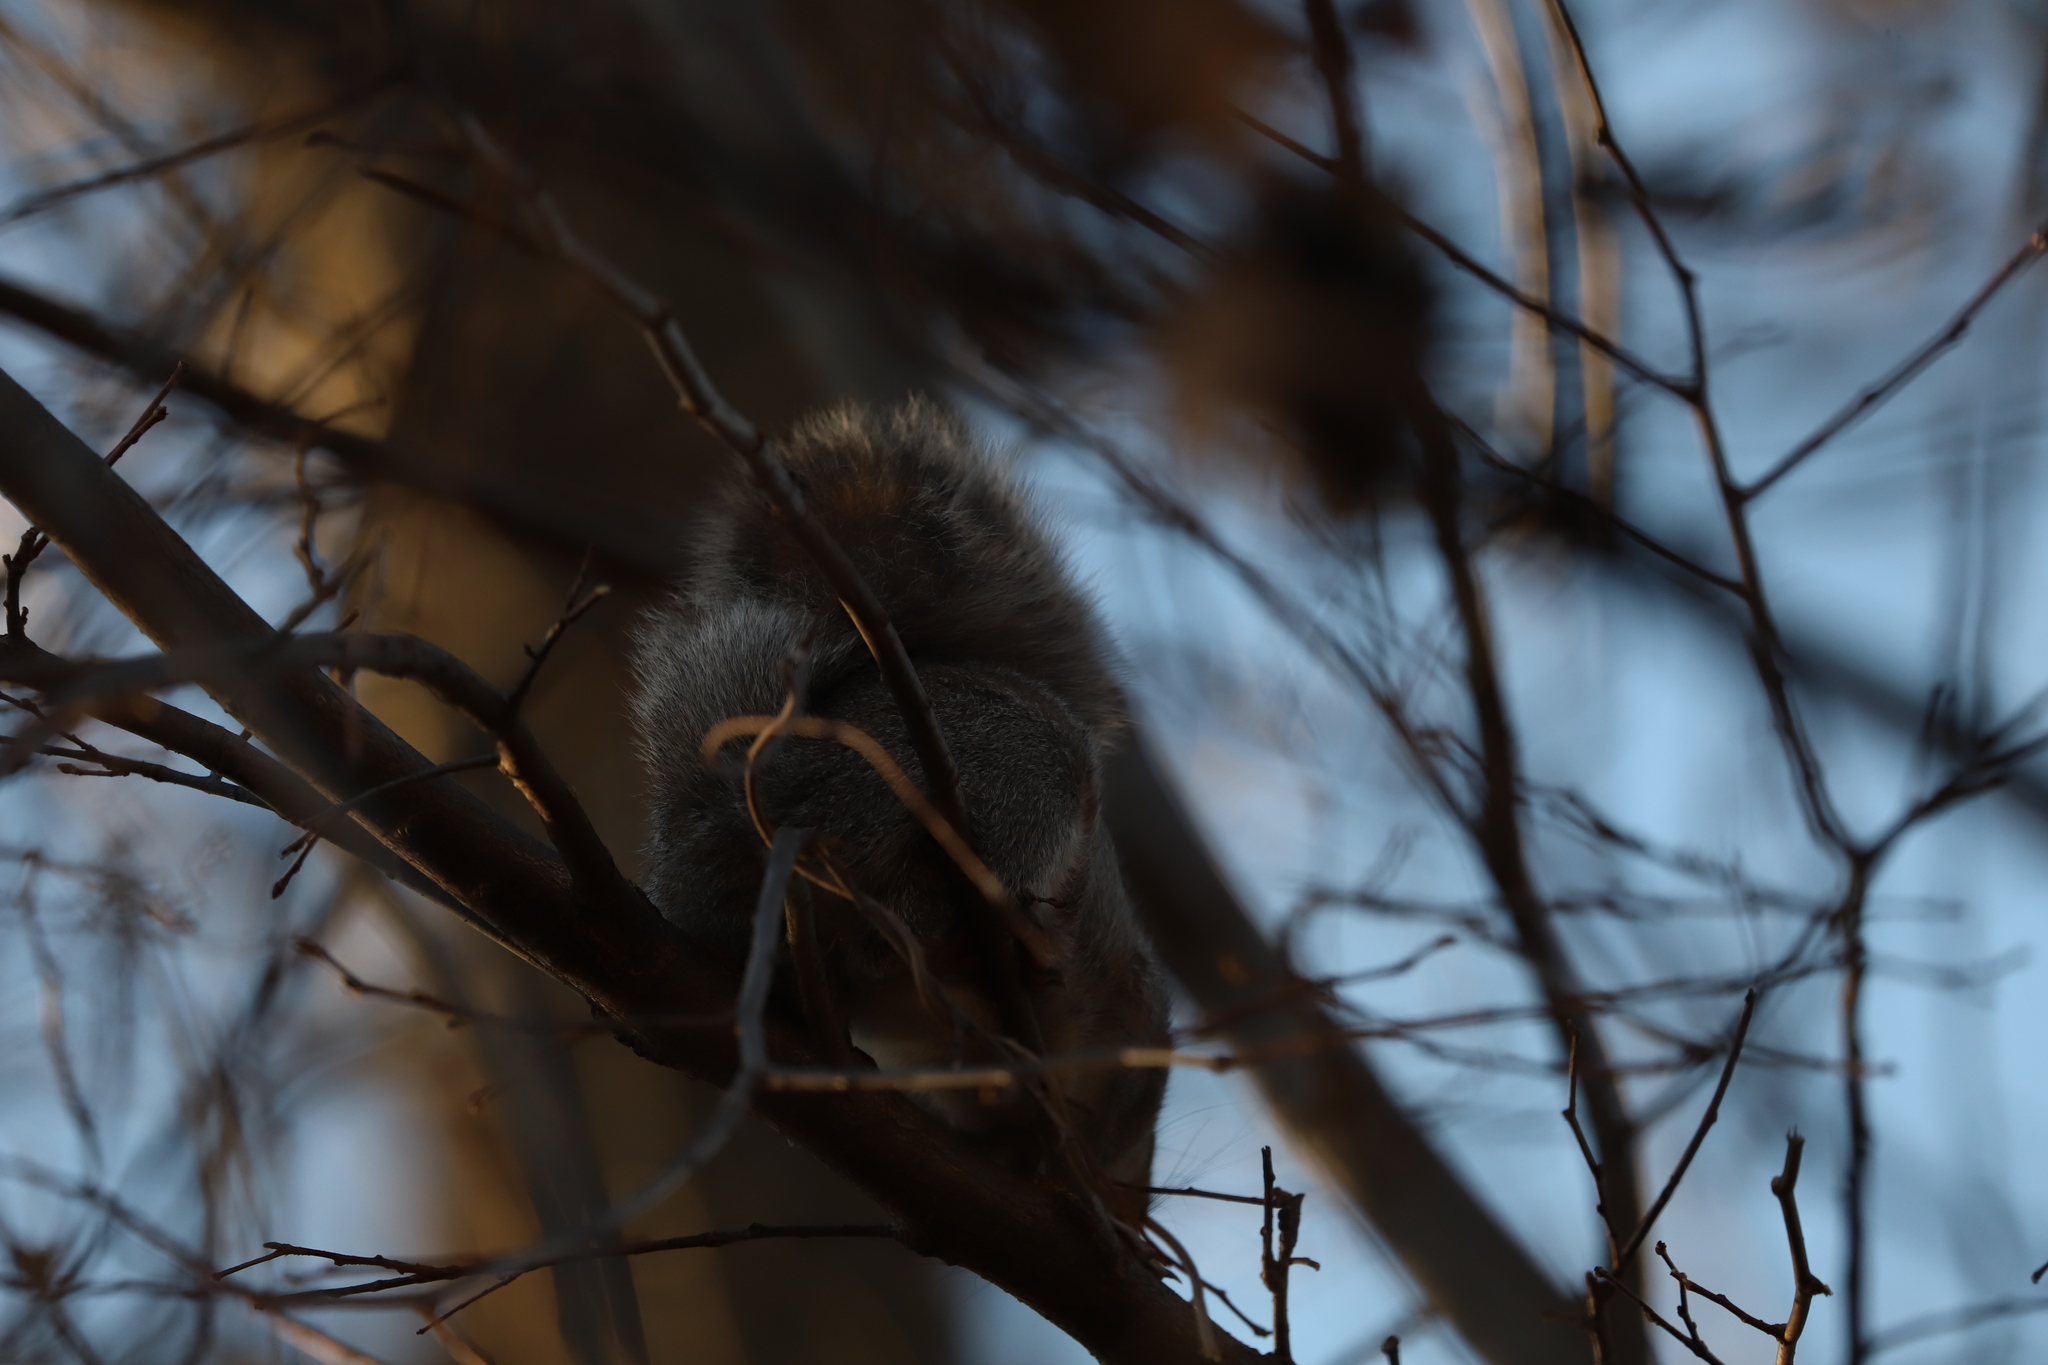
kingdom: Animalia
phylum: Chordata
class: Mammalia
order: Rodentia
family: Sciuridae
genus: Sciurus
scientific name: Sciurus carolinensis
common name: Eastern gray squirrel
